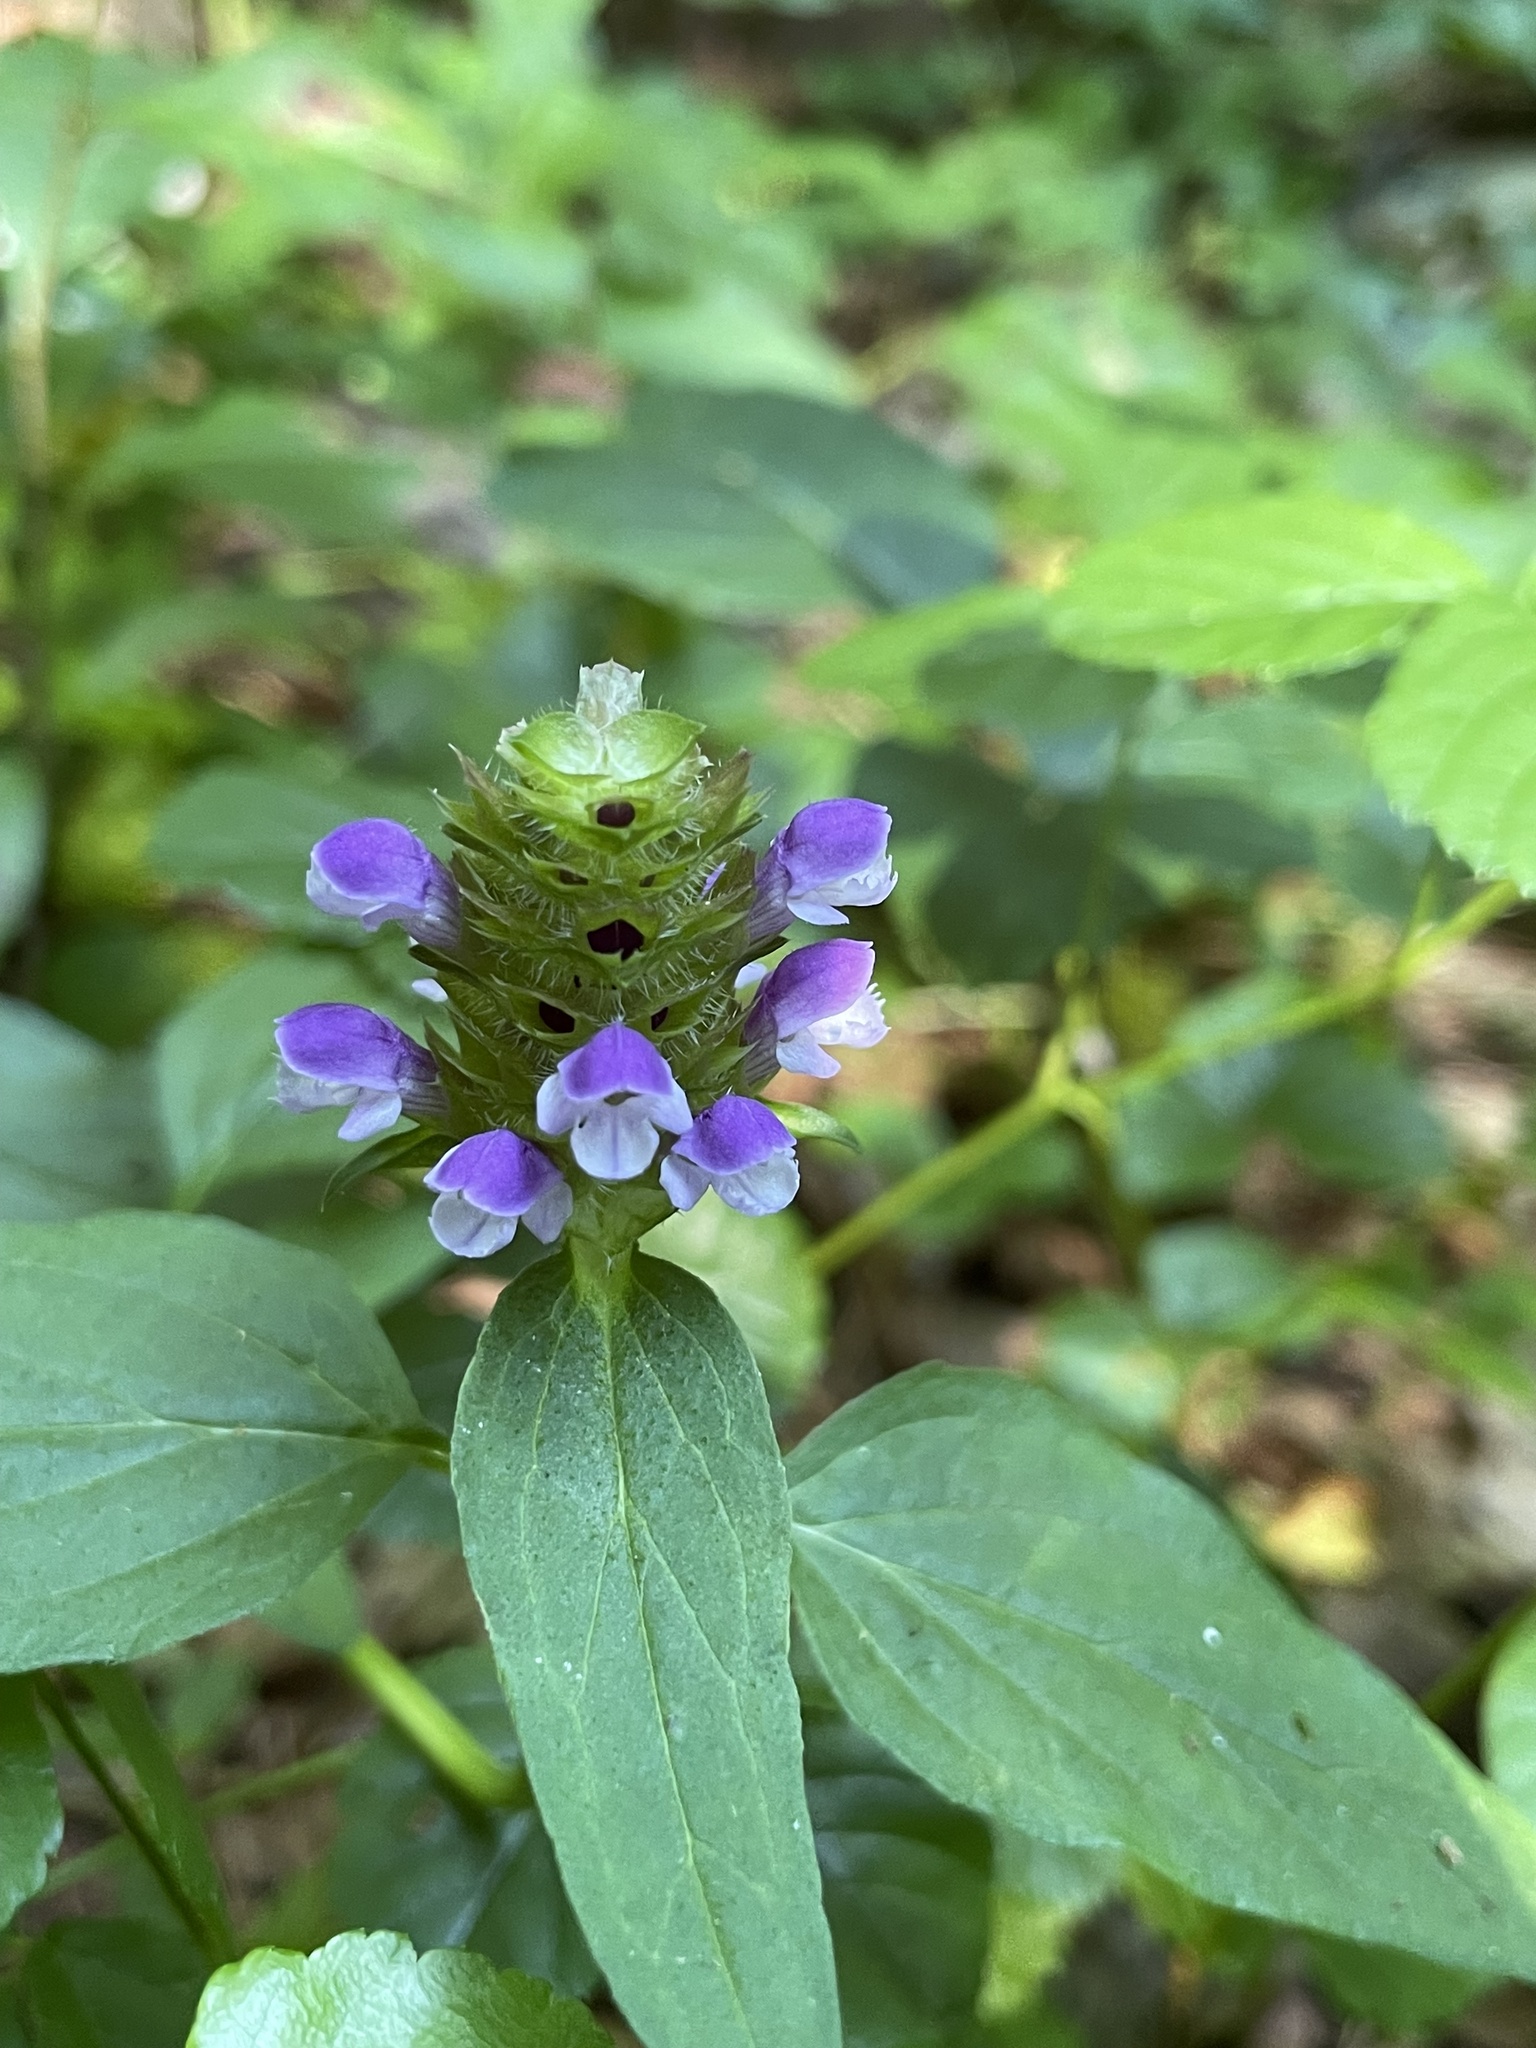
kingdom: Plantae
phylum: Tracheophyta
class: Magnoliopsida
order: Lamiales
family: Lamiaceae
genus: Prunella
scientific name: Prunella vulgaris
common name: Heal-all
